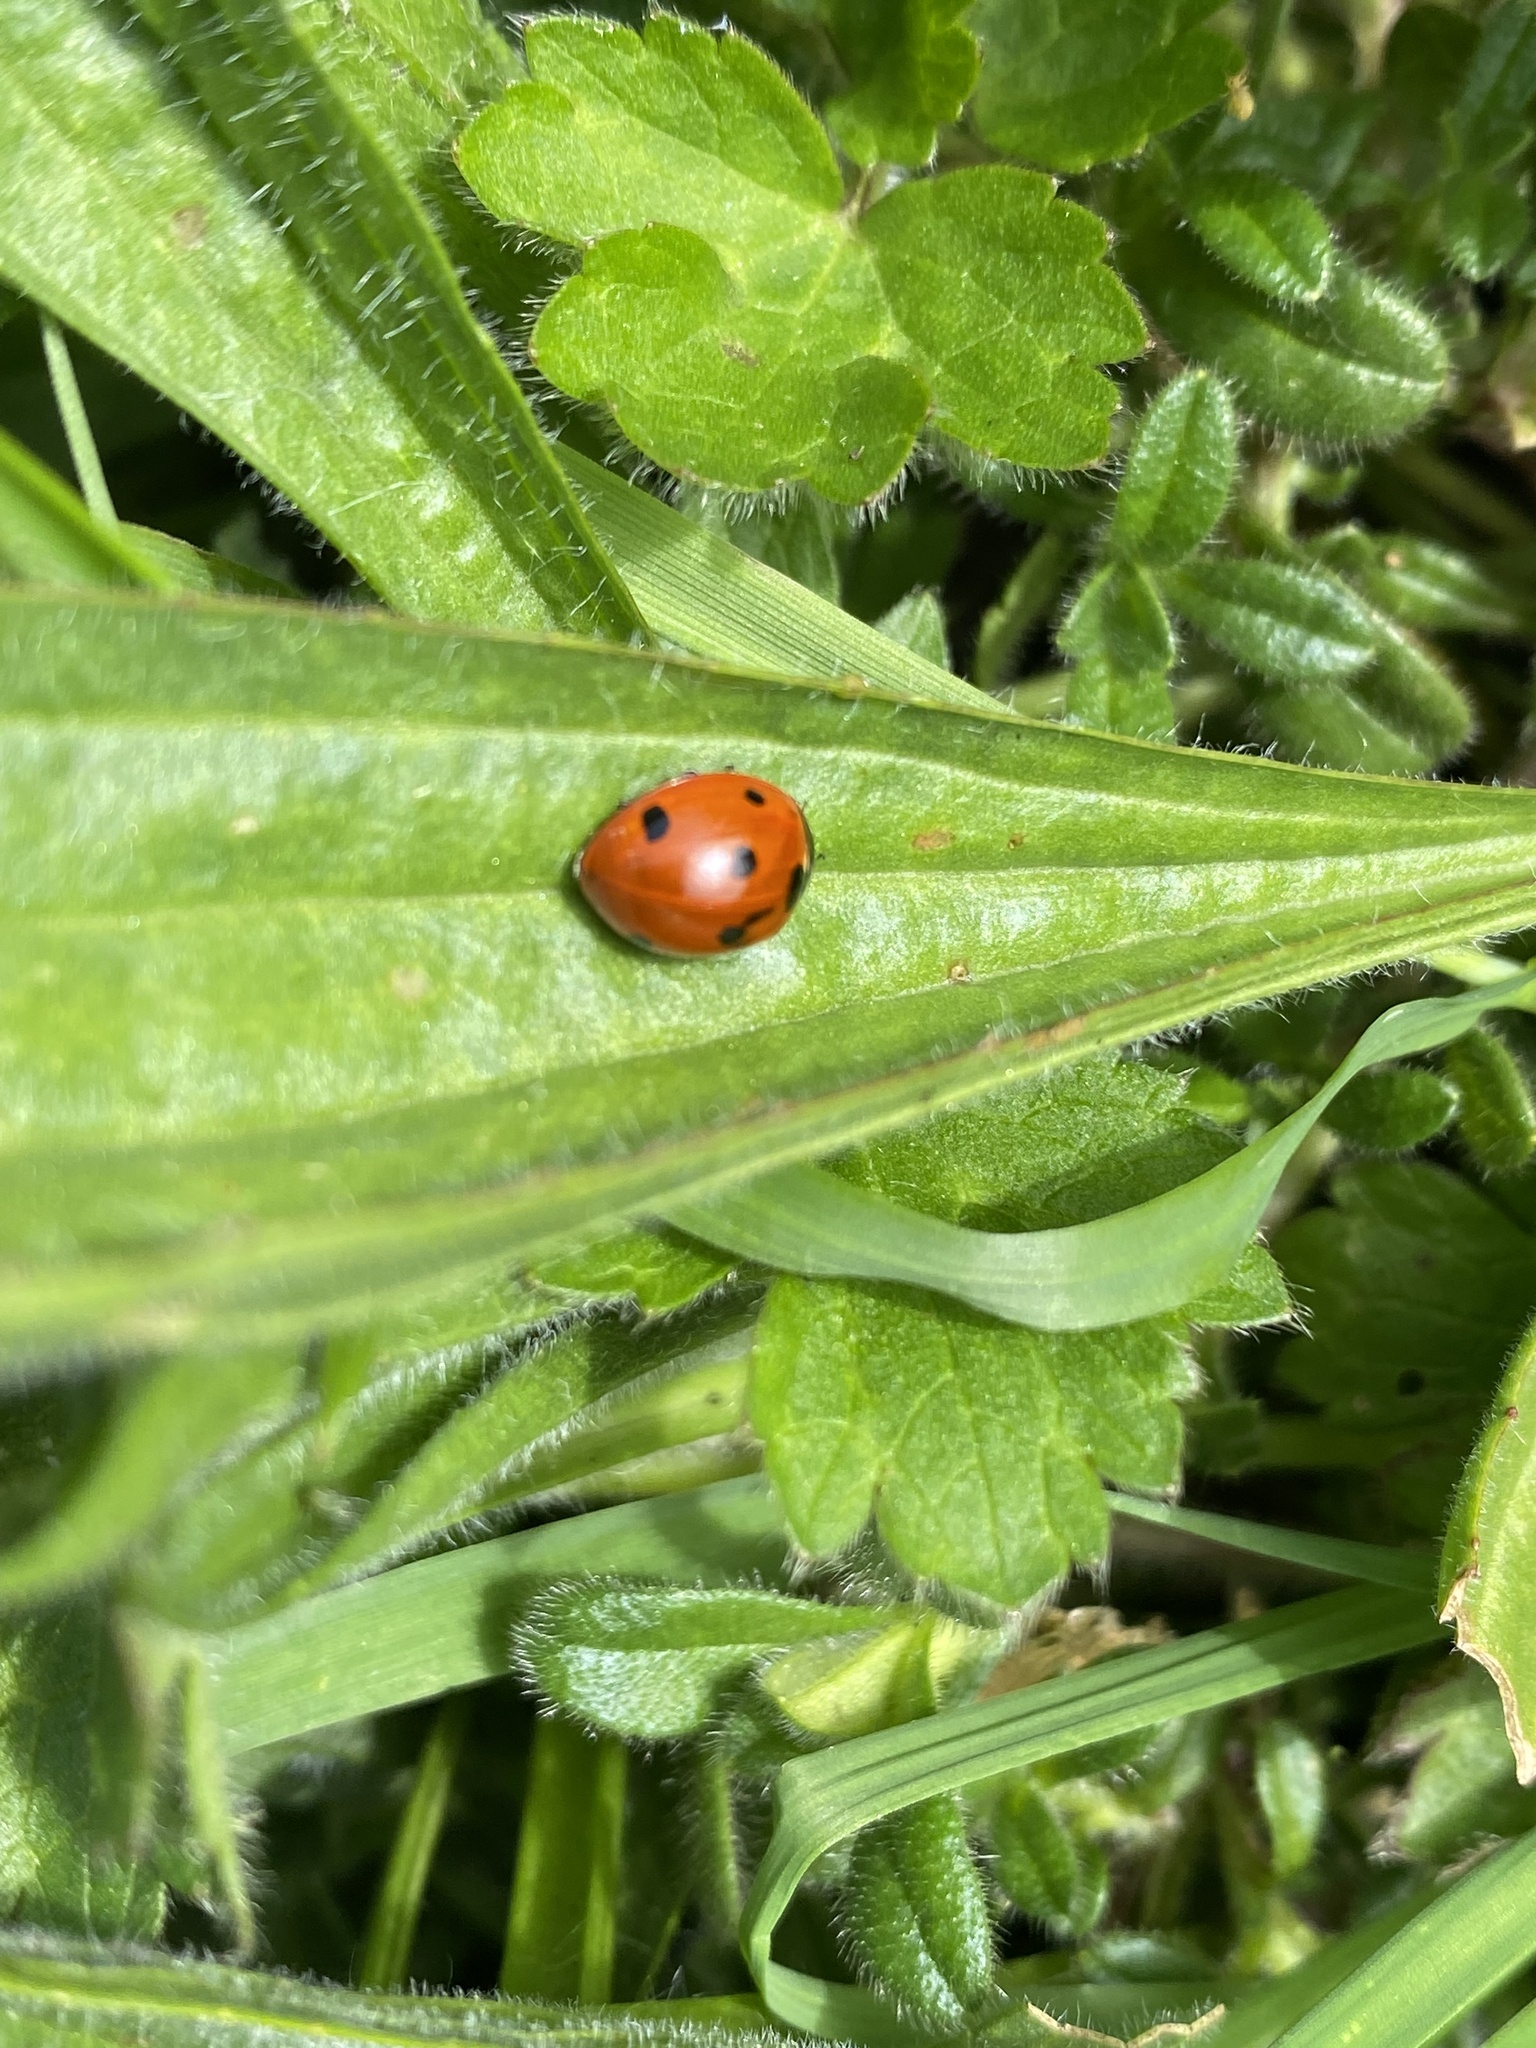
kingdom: Animalia
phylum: Arthropoda
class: Insecta
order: Coleoptera
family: Coccinellidae
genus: Coccinella
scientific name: Coccinella septempunctata
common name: Sevenspotted lady beetle
